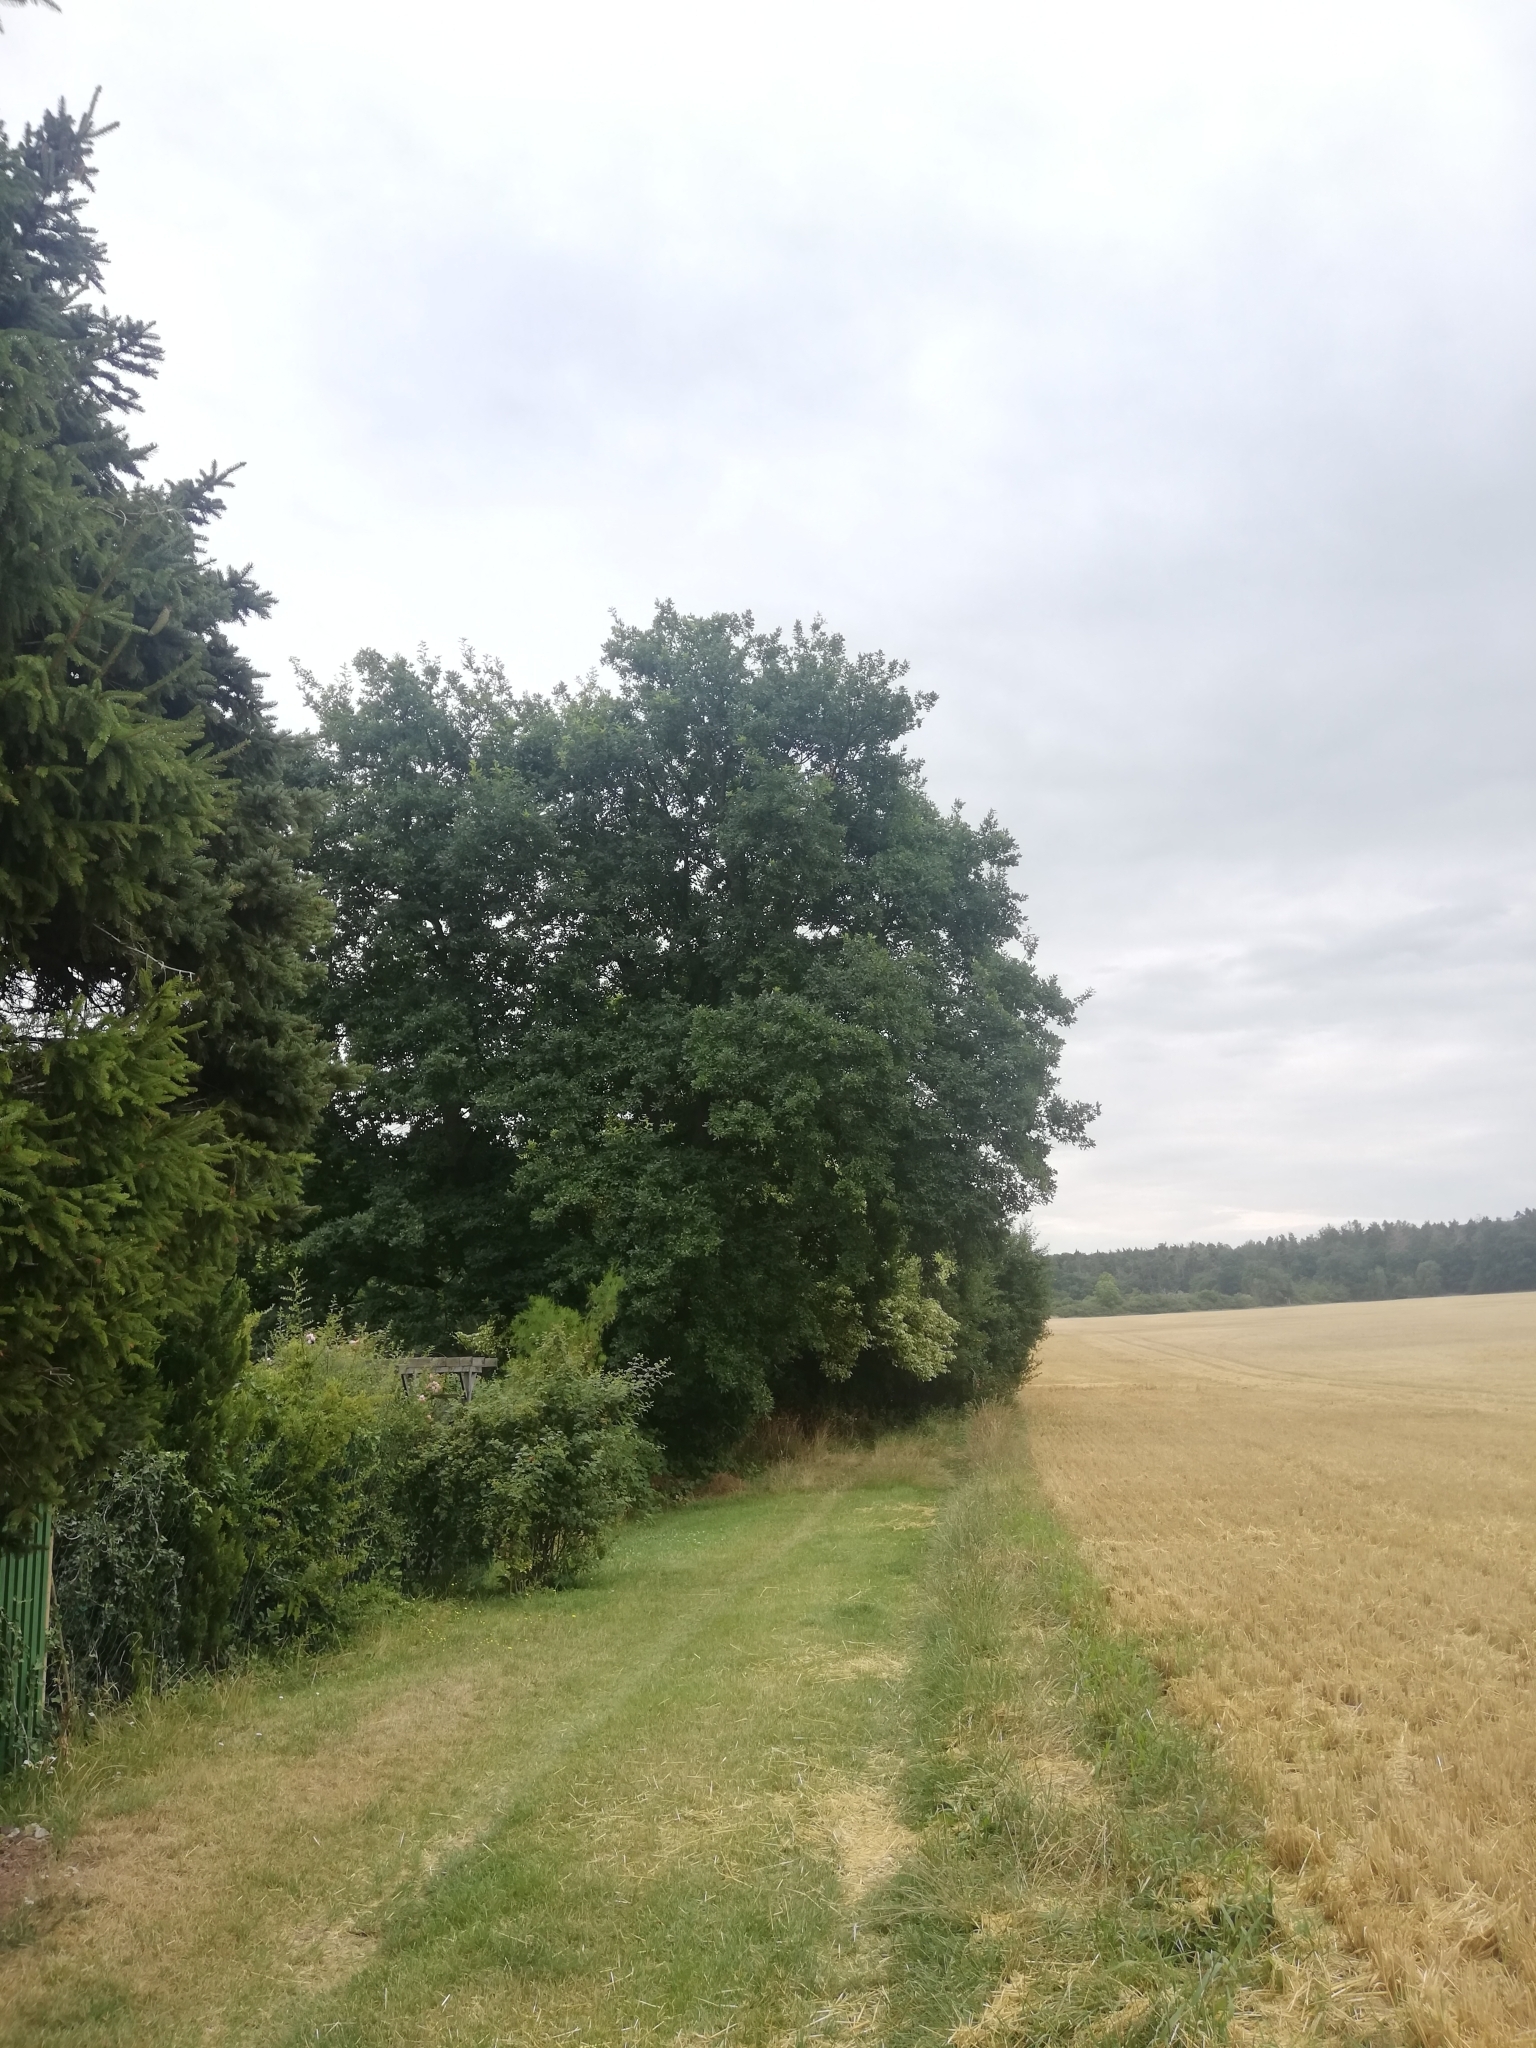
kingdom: Plantae
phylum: Tracheophyta
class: Magnoliopsida
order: Fagales
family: Fagaceae
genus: Quercus
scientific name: Quercus robur
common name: Pedunculate oak
